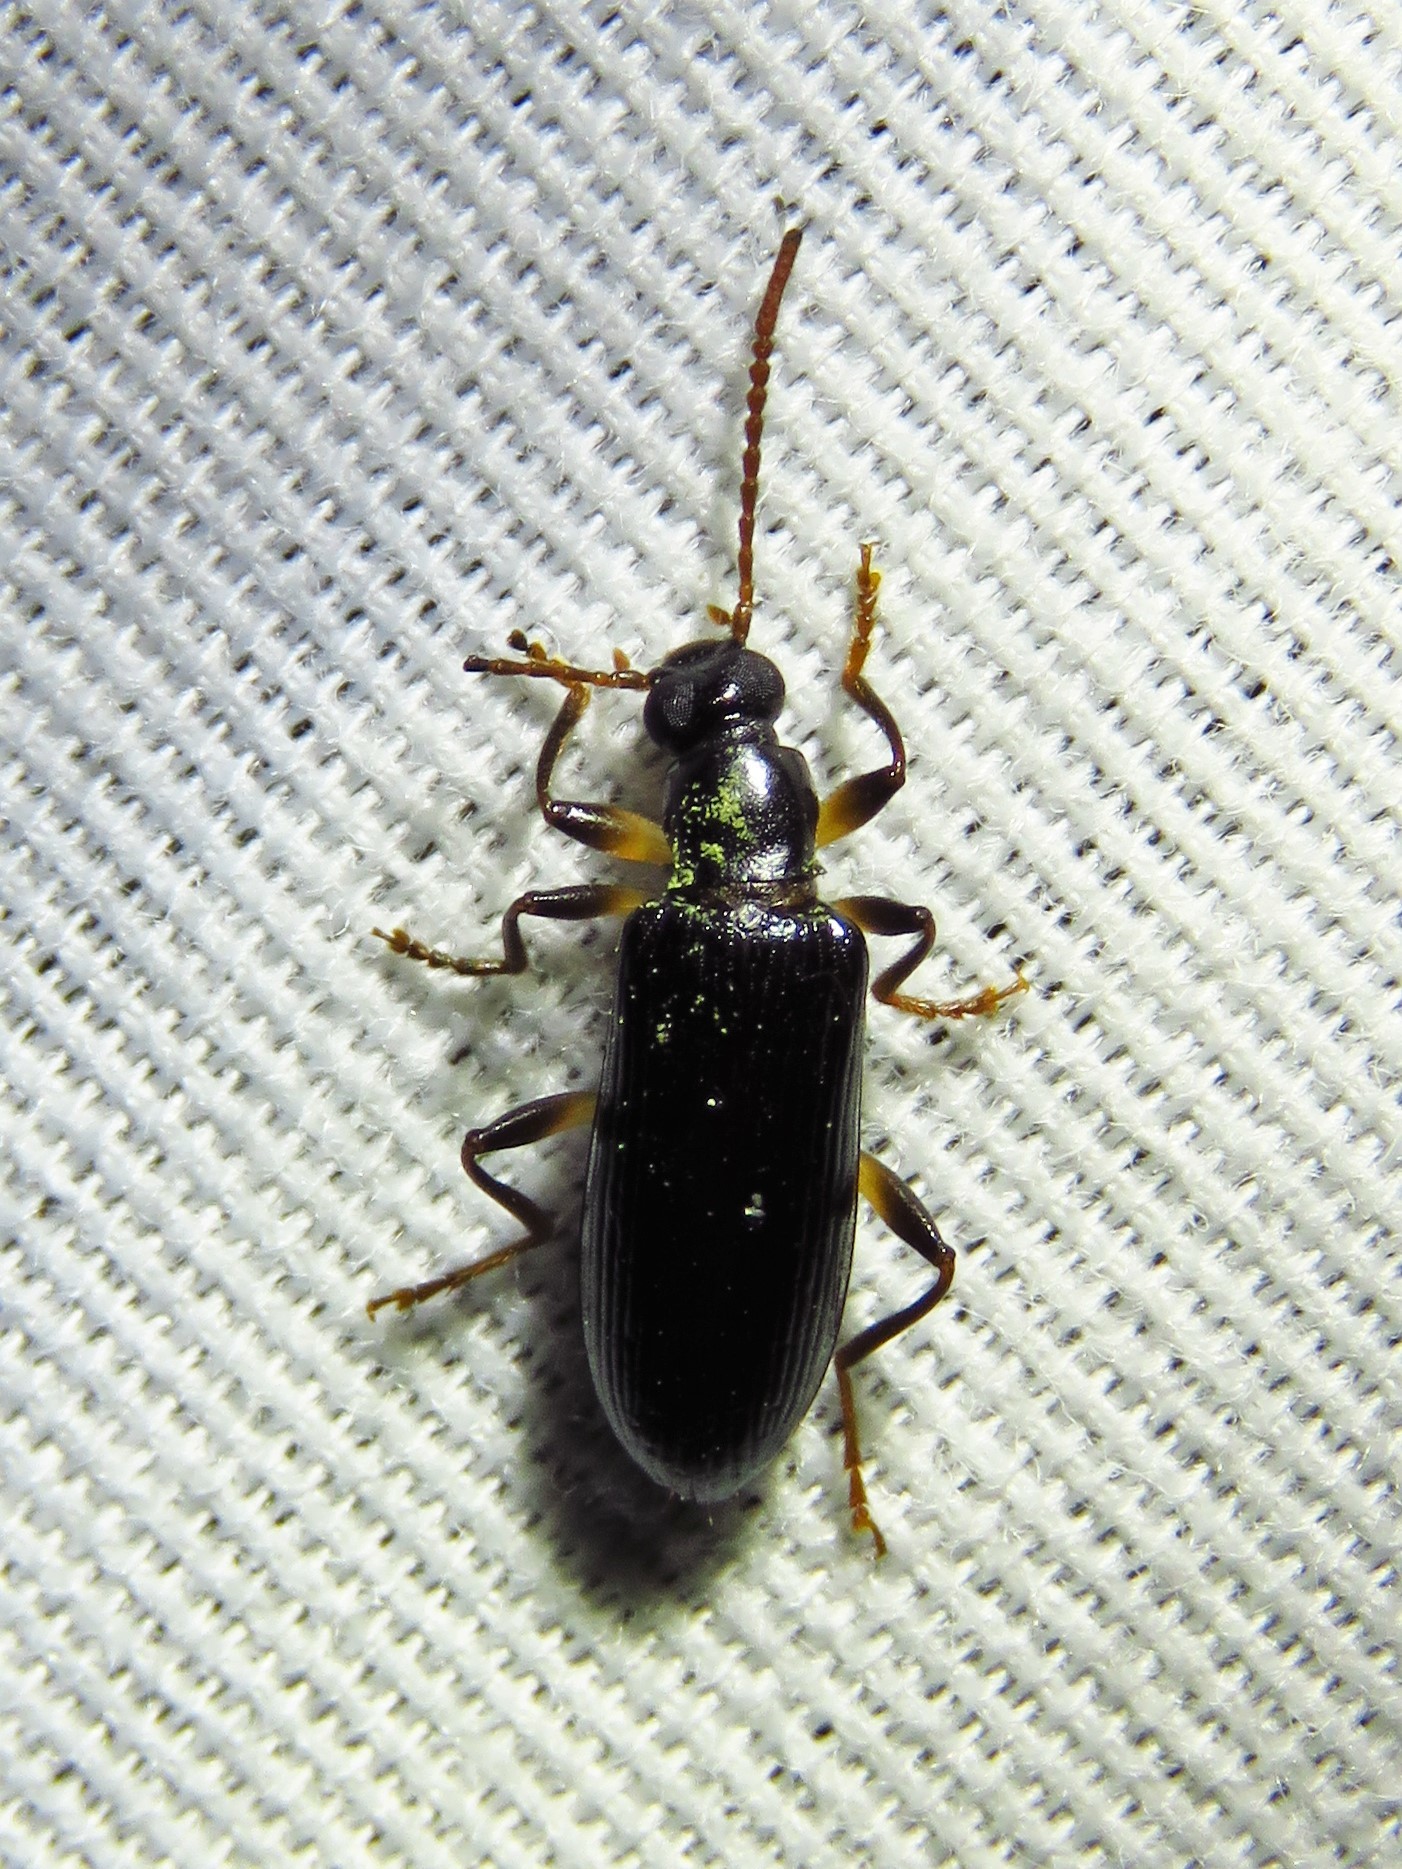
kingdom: Animalia
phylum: Arthropoda
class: Insecta
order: Coleoptera
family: Tenebrionidae
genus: Statira
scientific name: Statira basalis
